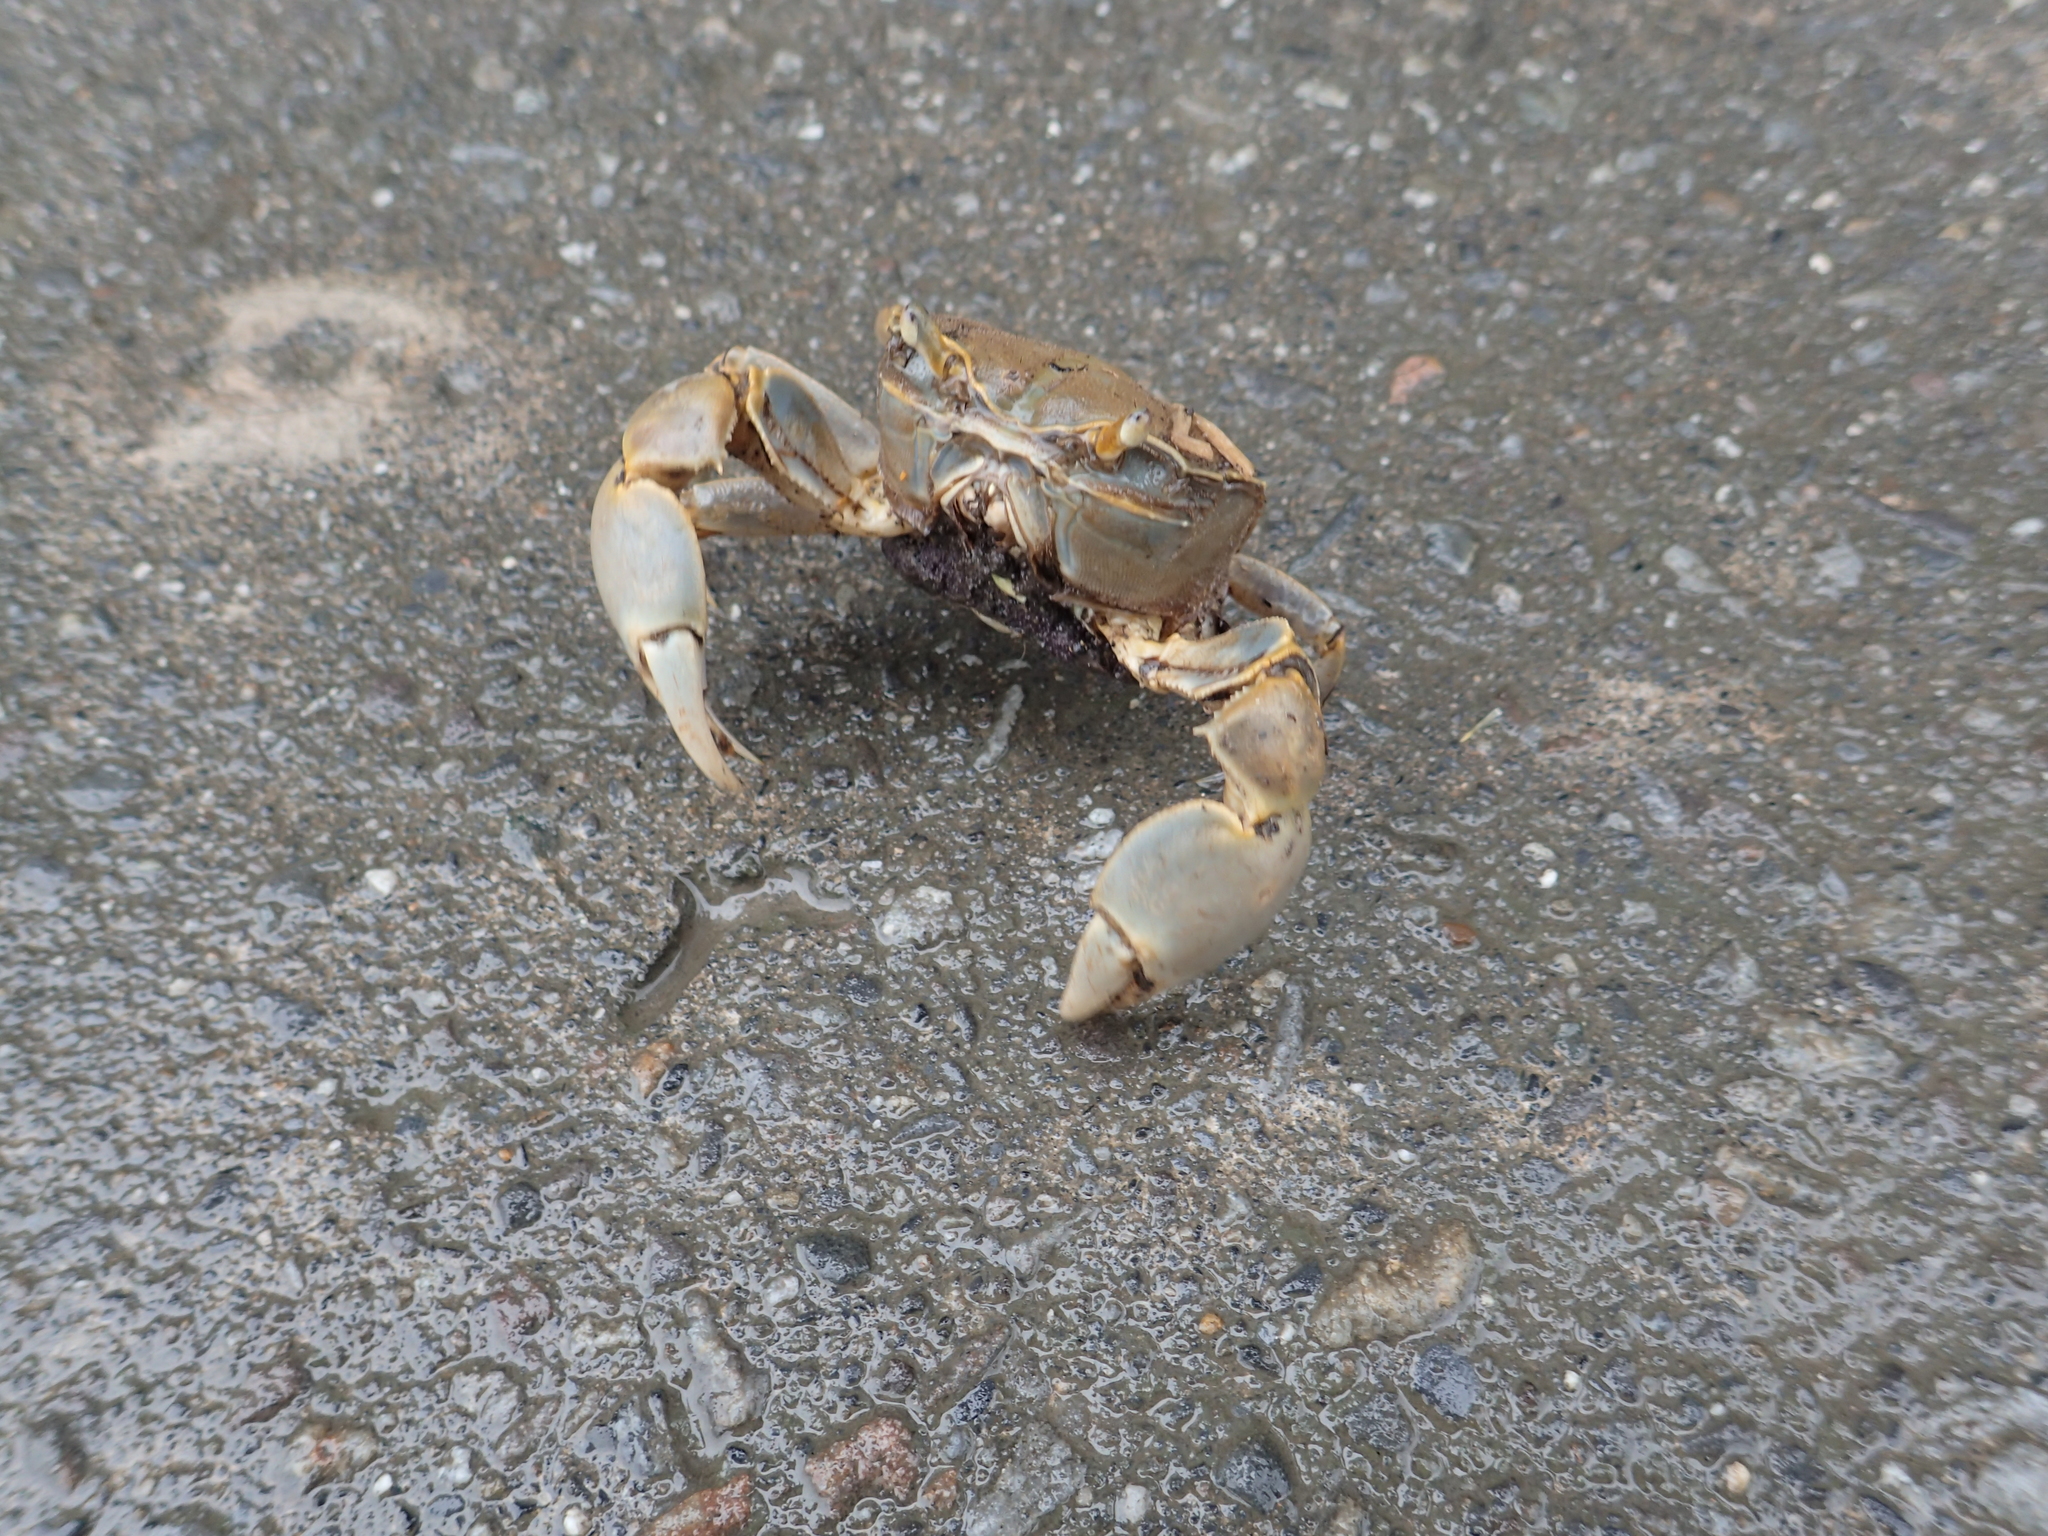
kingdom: Animalia
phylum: Arthropoda
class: Malacostraca
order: Decapoda
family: Varunidae
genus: Chasmagnathus
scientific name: Chasmagnathus convexus
